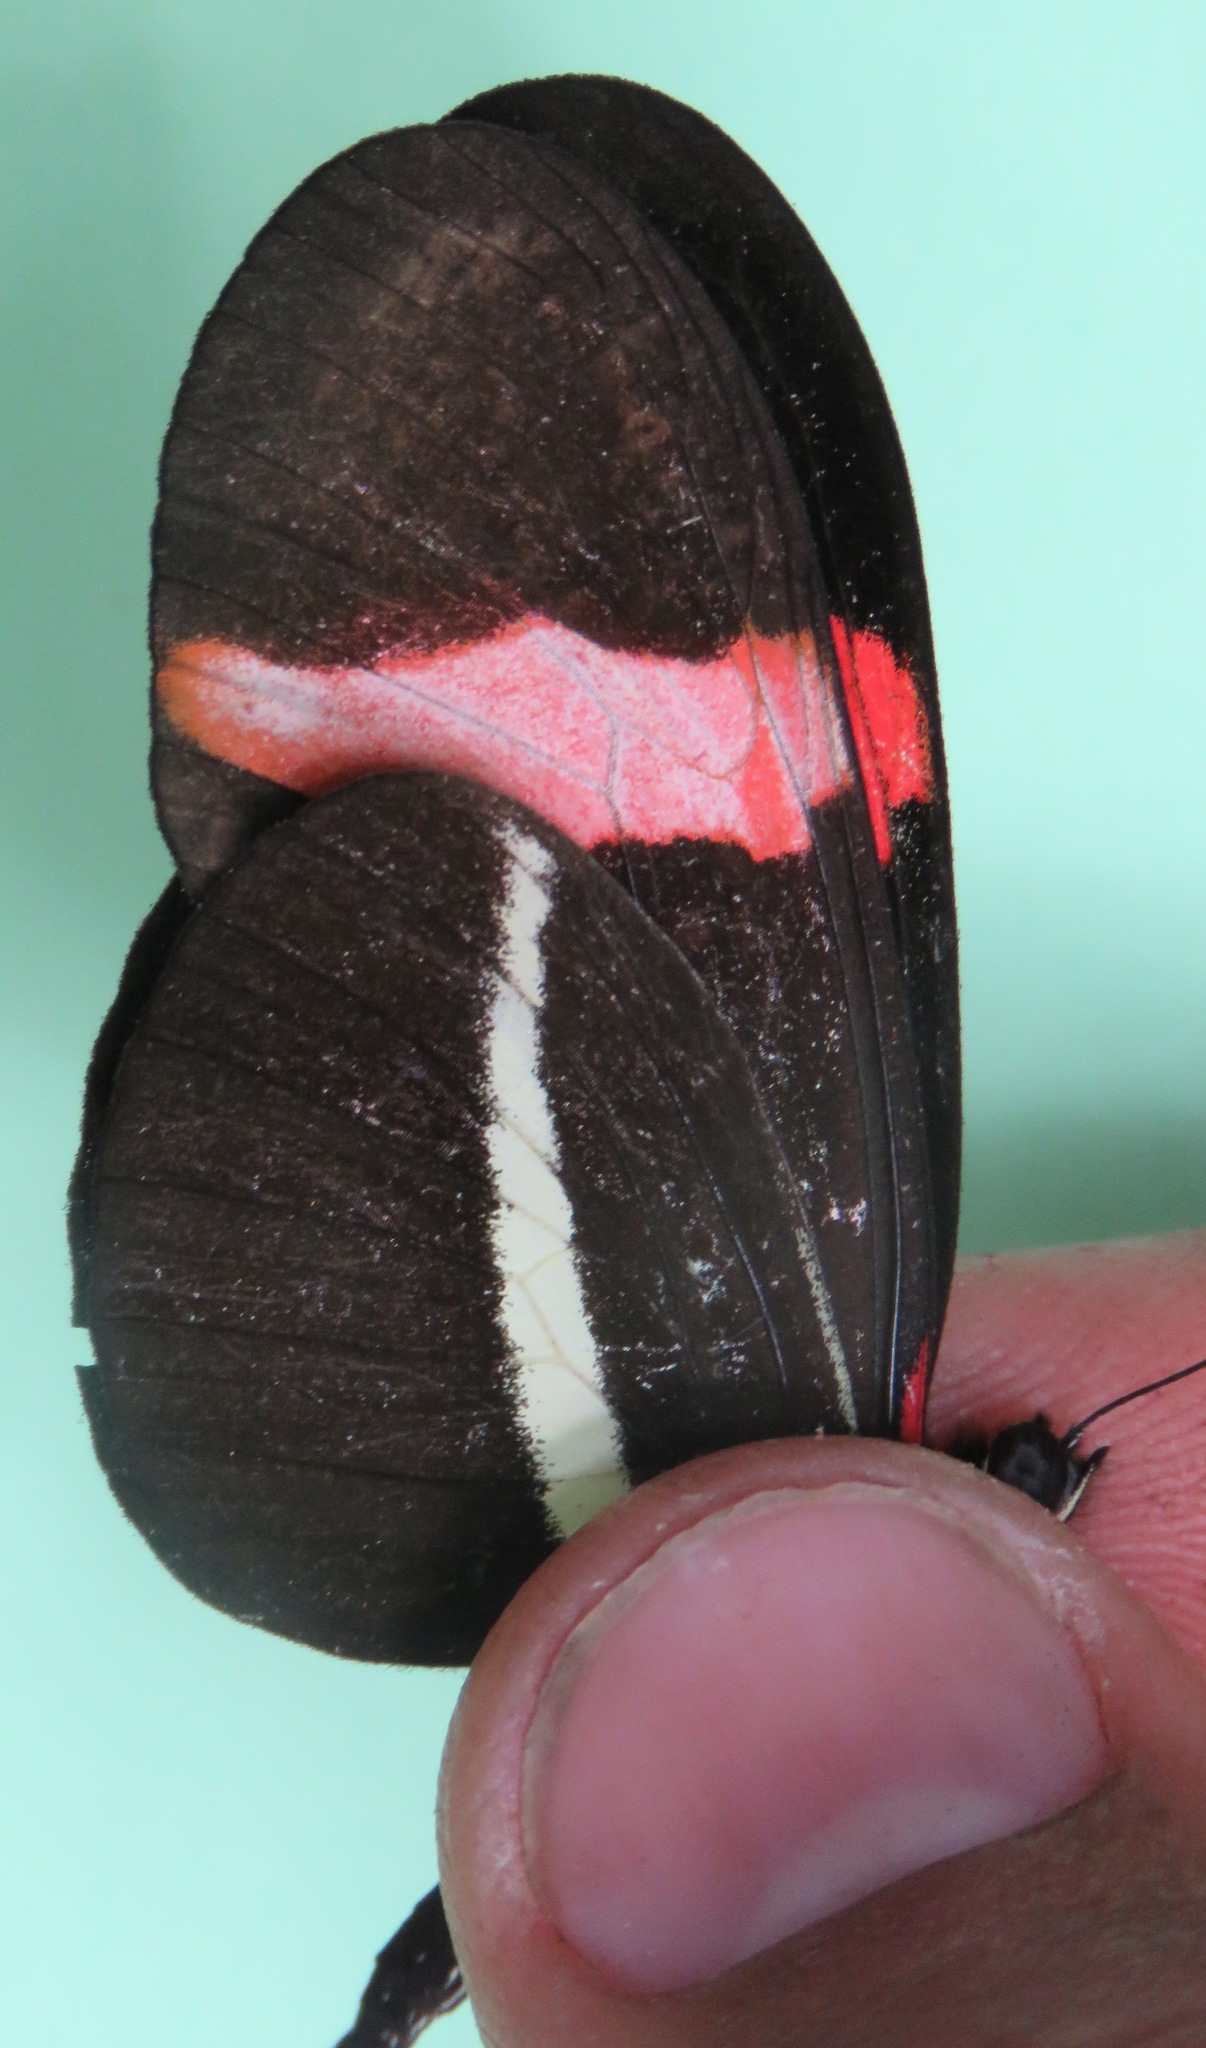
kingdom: Animalia
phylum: Arthropoda
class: Insecta
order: Lepidoptera
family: Nymphalidae
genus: Tirumala
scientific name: Tirumala petiverana
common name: Blue monarch
